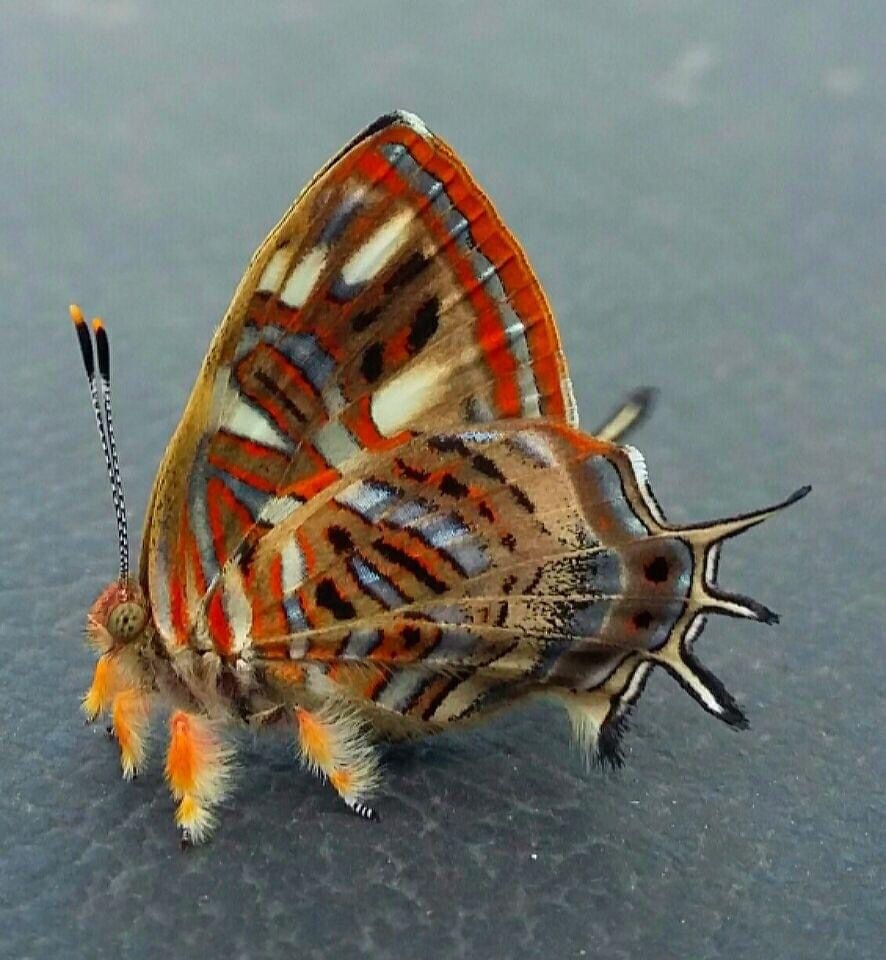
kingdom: Animalia
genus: Charis
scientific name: Charis Sarota chrysus
